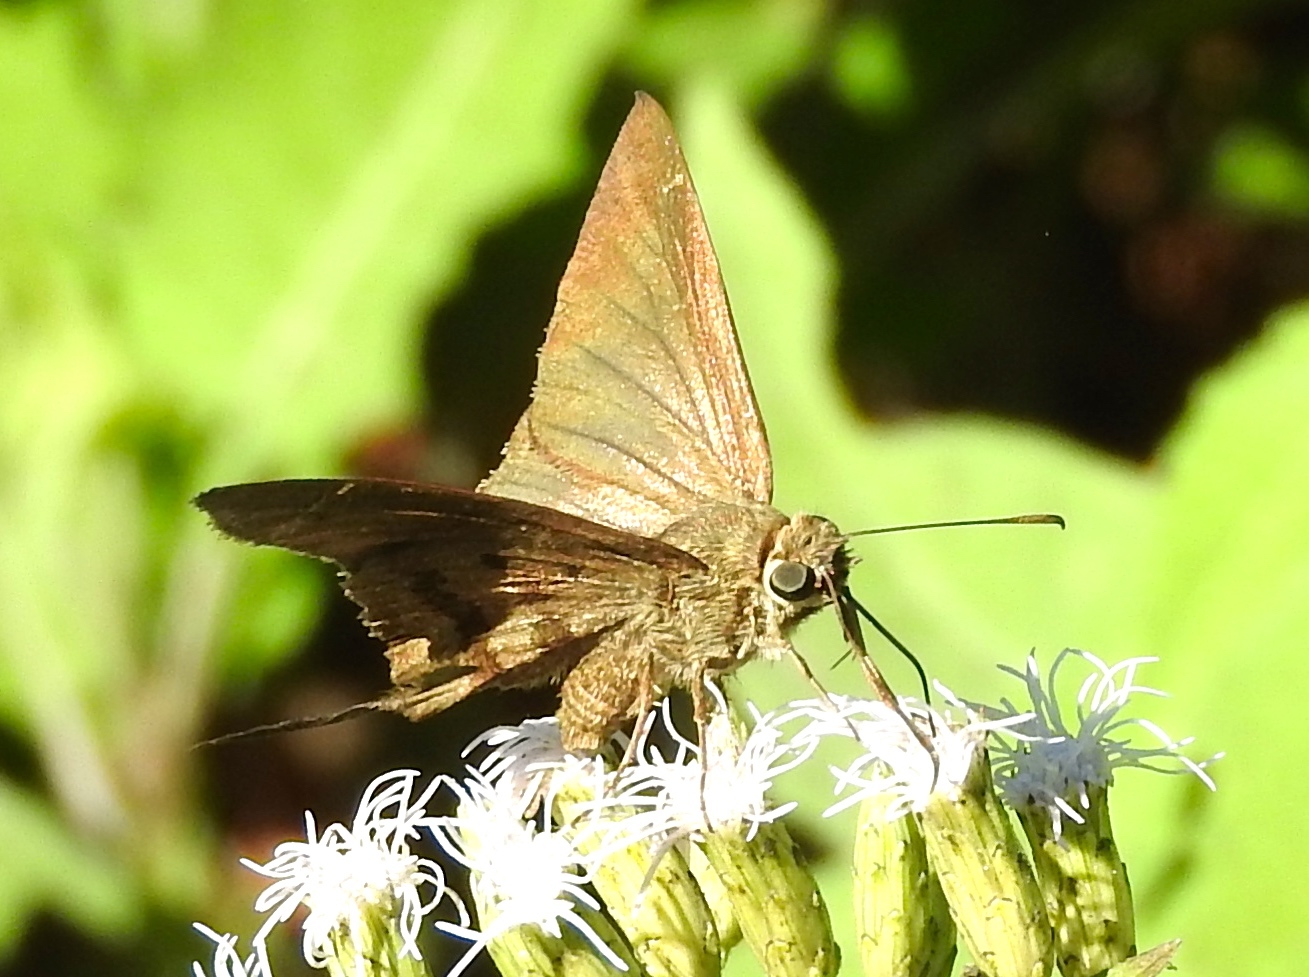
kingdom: Animalia
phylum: Arthropoda
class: Insecta
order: Lepidoptera
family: Hesperiidae
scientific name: Hesperiidae
